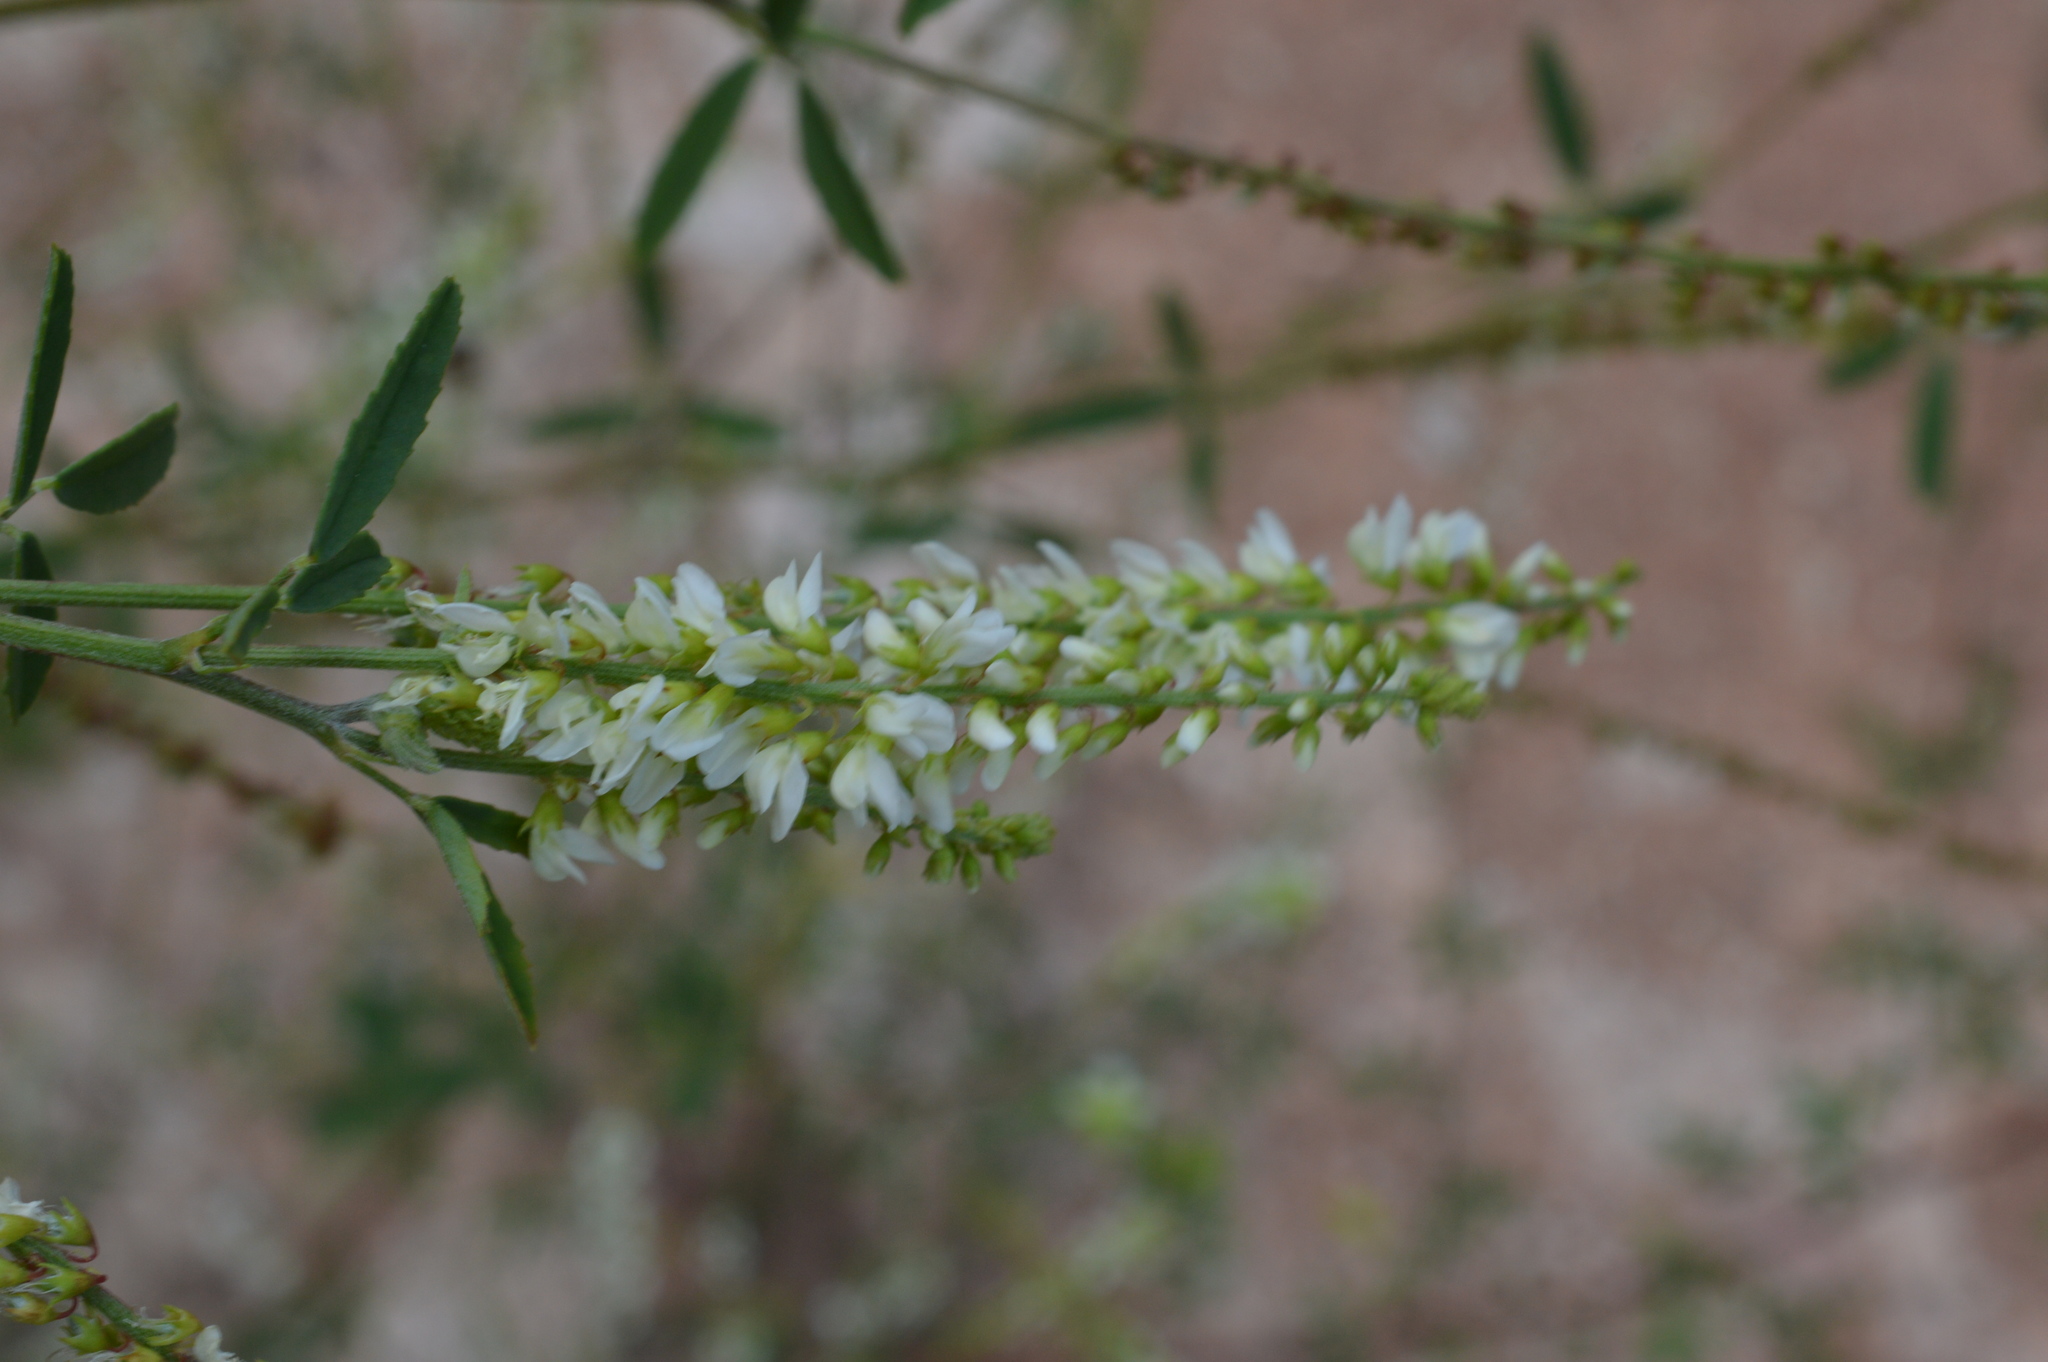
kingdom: Plantae
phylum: Tracheophyta
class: Magnoliopsida
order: Fabales
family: Fabaceae
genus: Melilotus
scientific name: Melilotus albus
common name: White melilot
